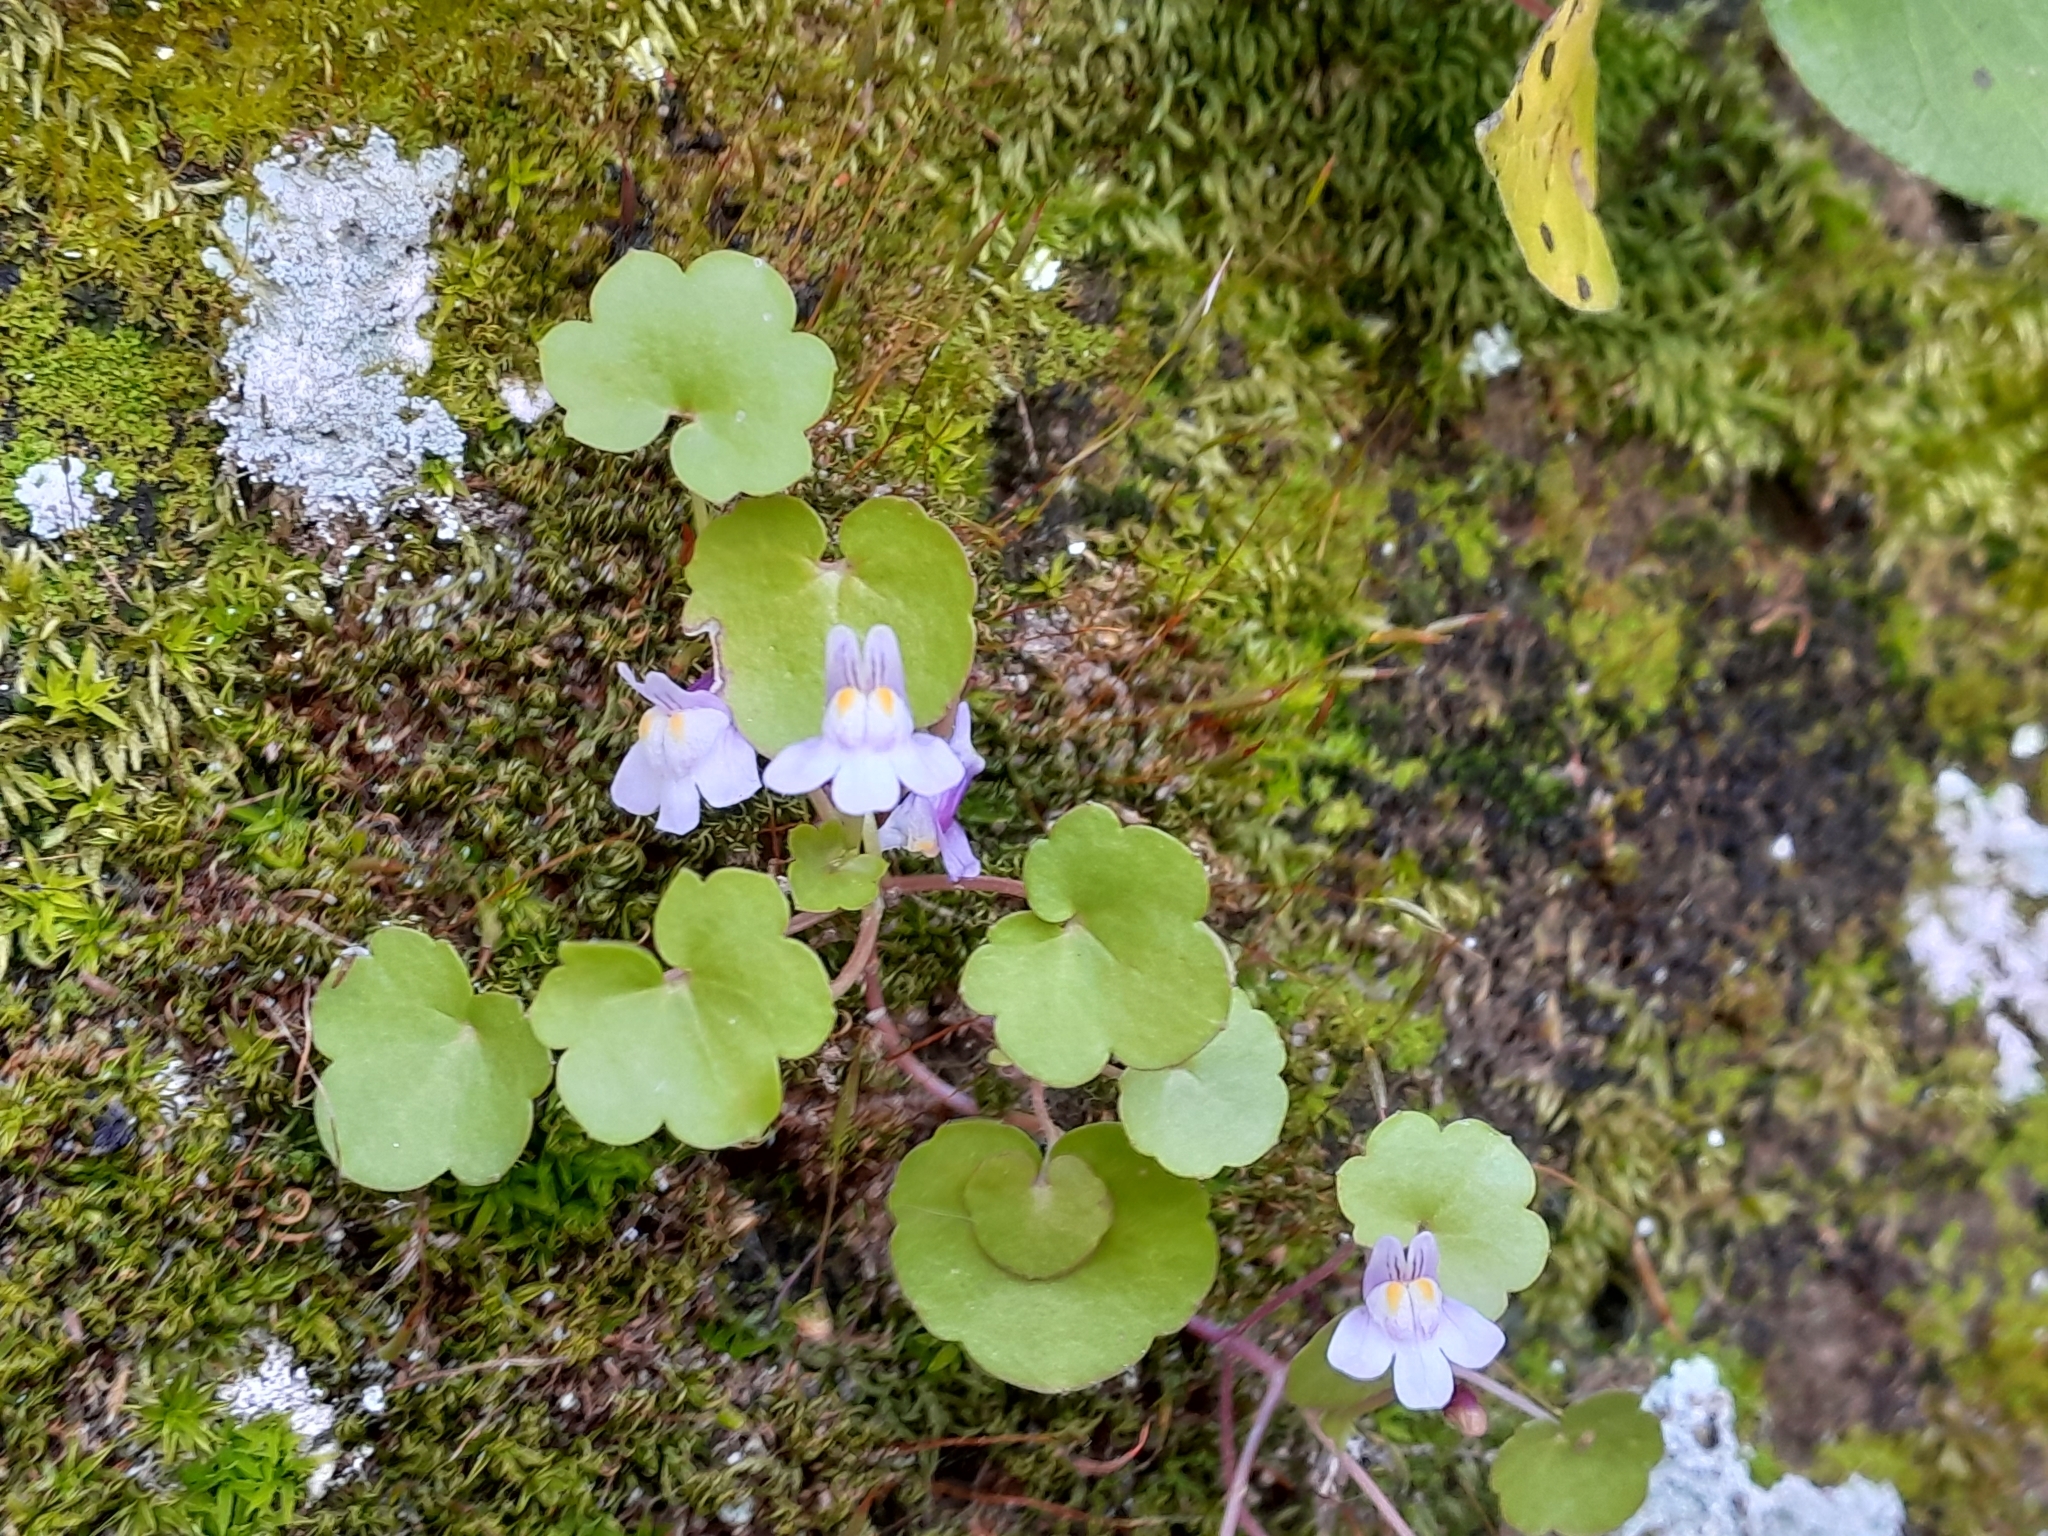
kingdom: Plantae
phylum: Tracheophyta
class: Magnoliopsida
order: Lamiales
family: Plantaginaceae
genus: Cymbalaria
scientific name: Cymbalaria muralis
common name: Ivy-leaved toadflax
